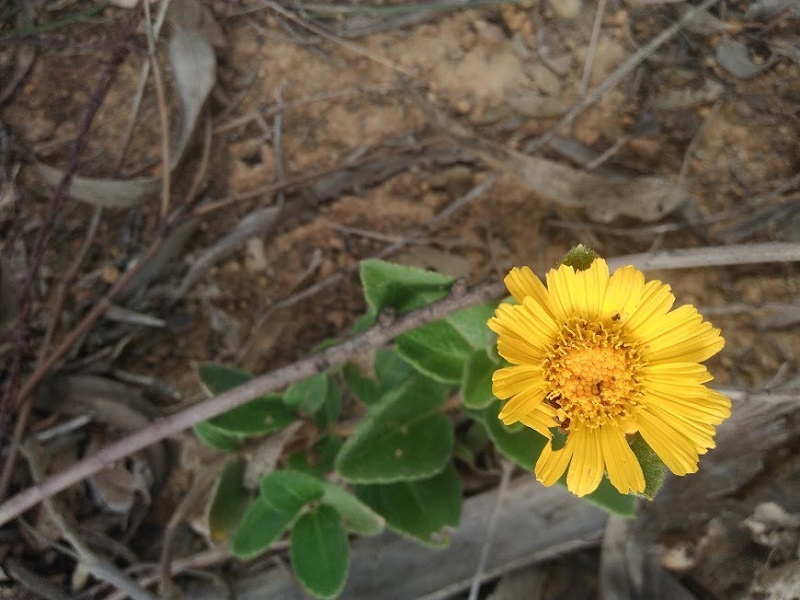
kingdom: Plantae
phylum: Tracheophyta
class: Magnoliopsida
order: Asterales
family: Asteraceae
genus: Calea
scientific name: Calea peruviana
